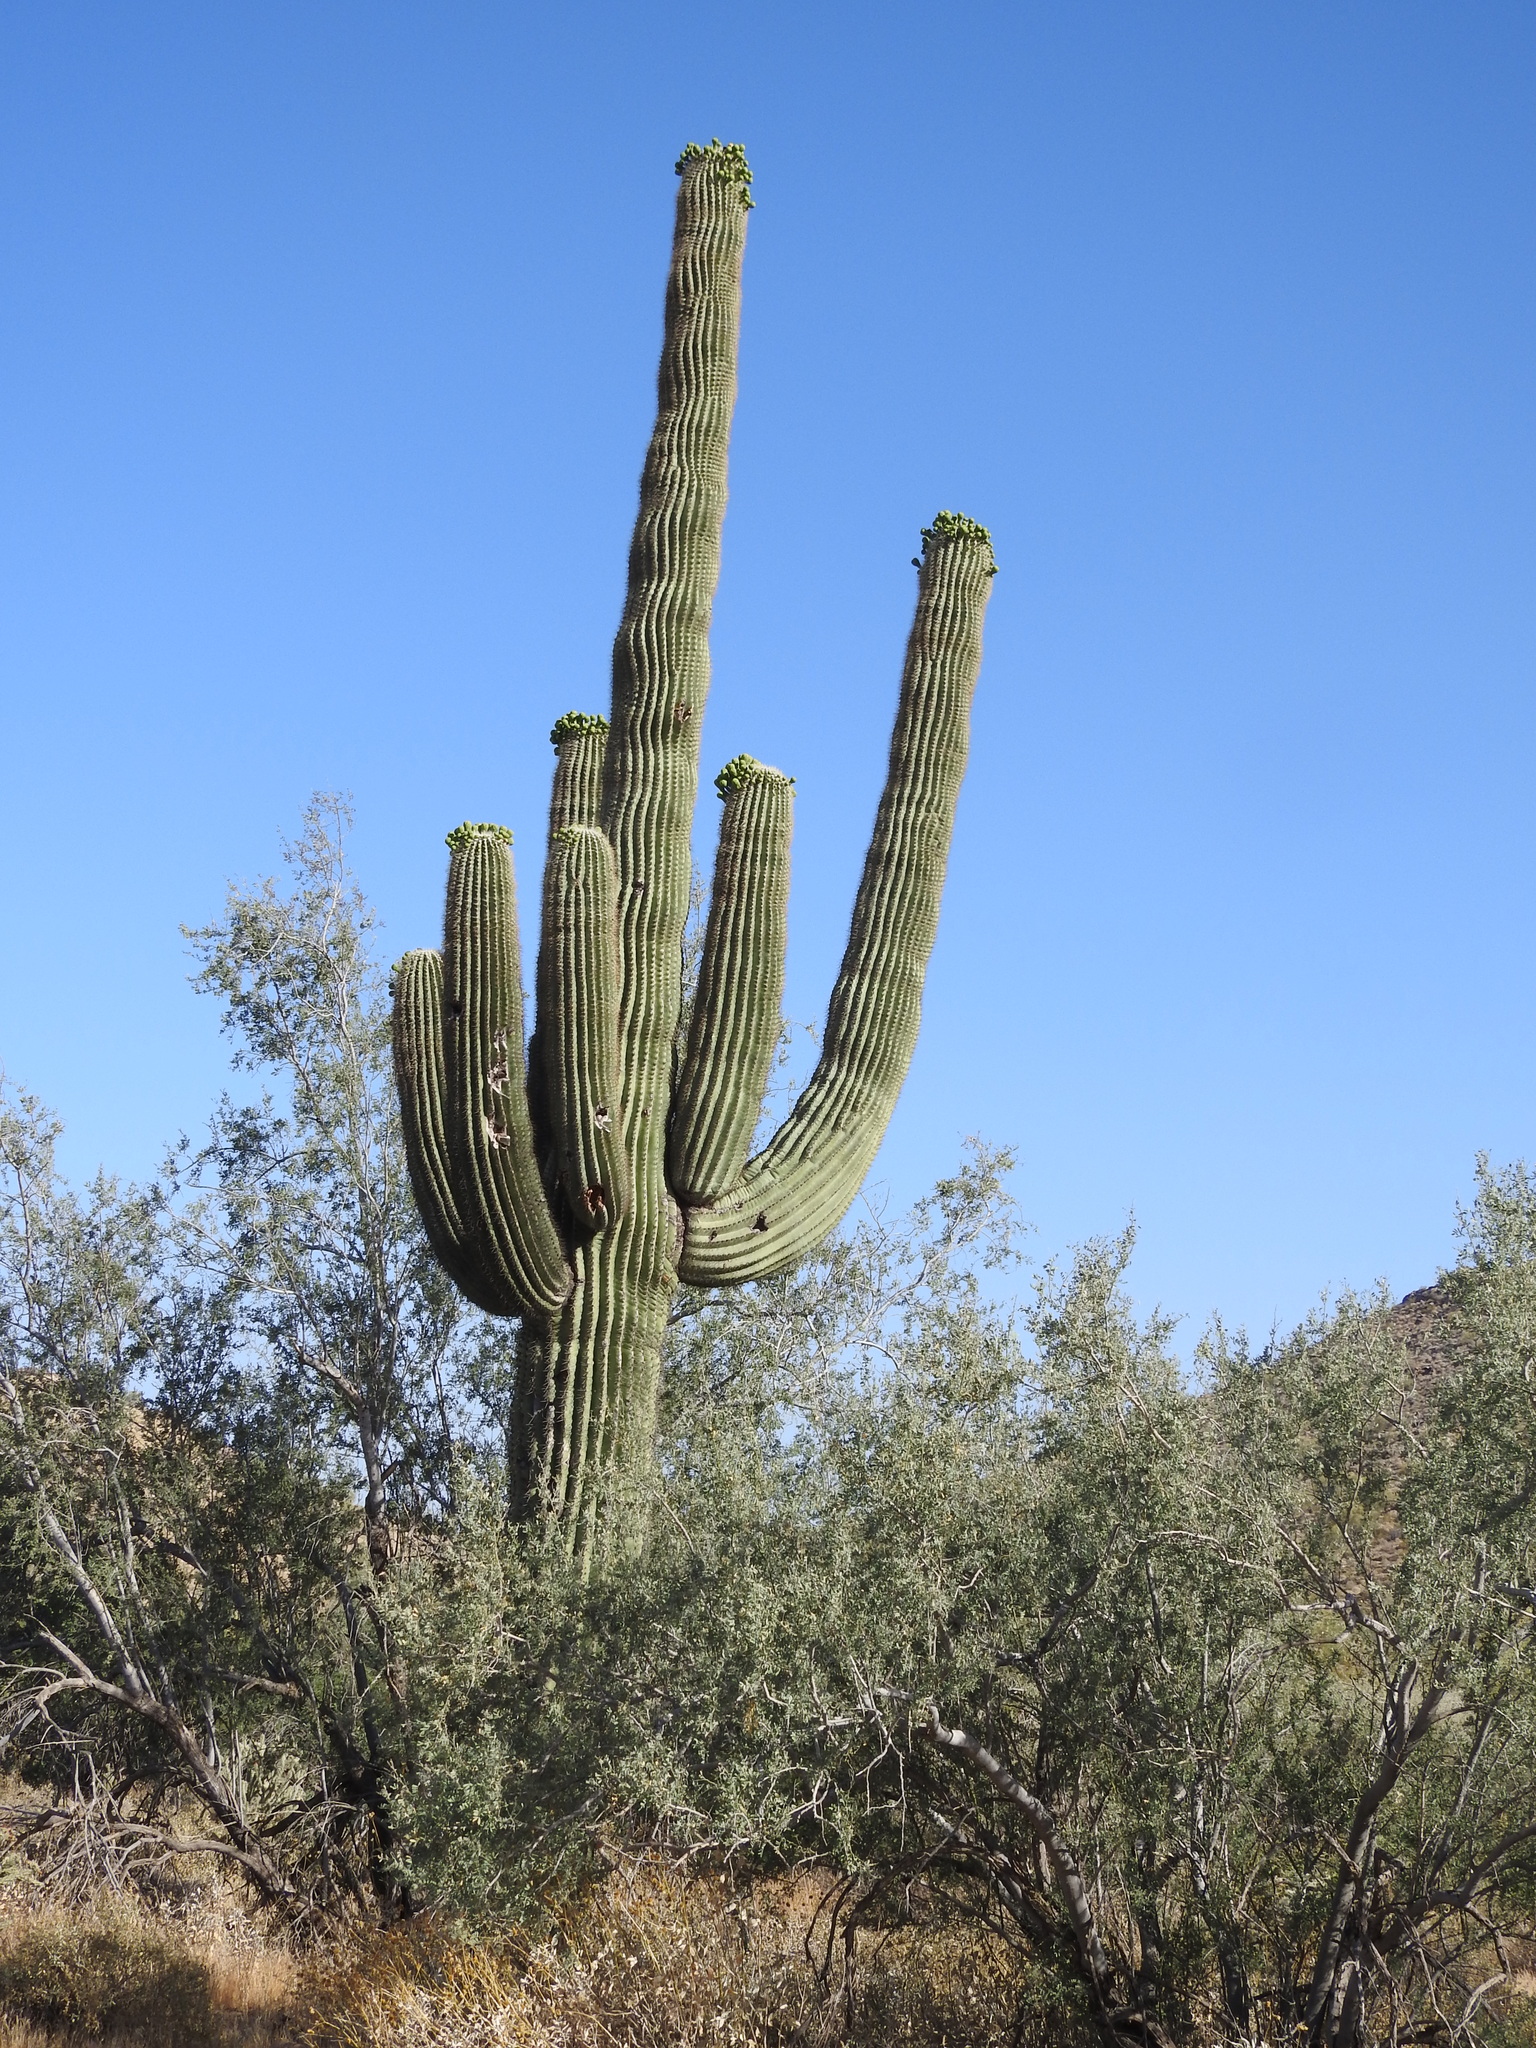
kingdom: Plantae
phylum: Tracheophyta
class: Magnoliopsida
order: Caryophyllales
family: Cactaceae
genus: Carnegiea
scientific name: Carnegiea gigantea
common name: Saguaro
